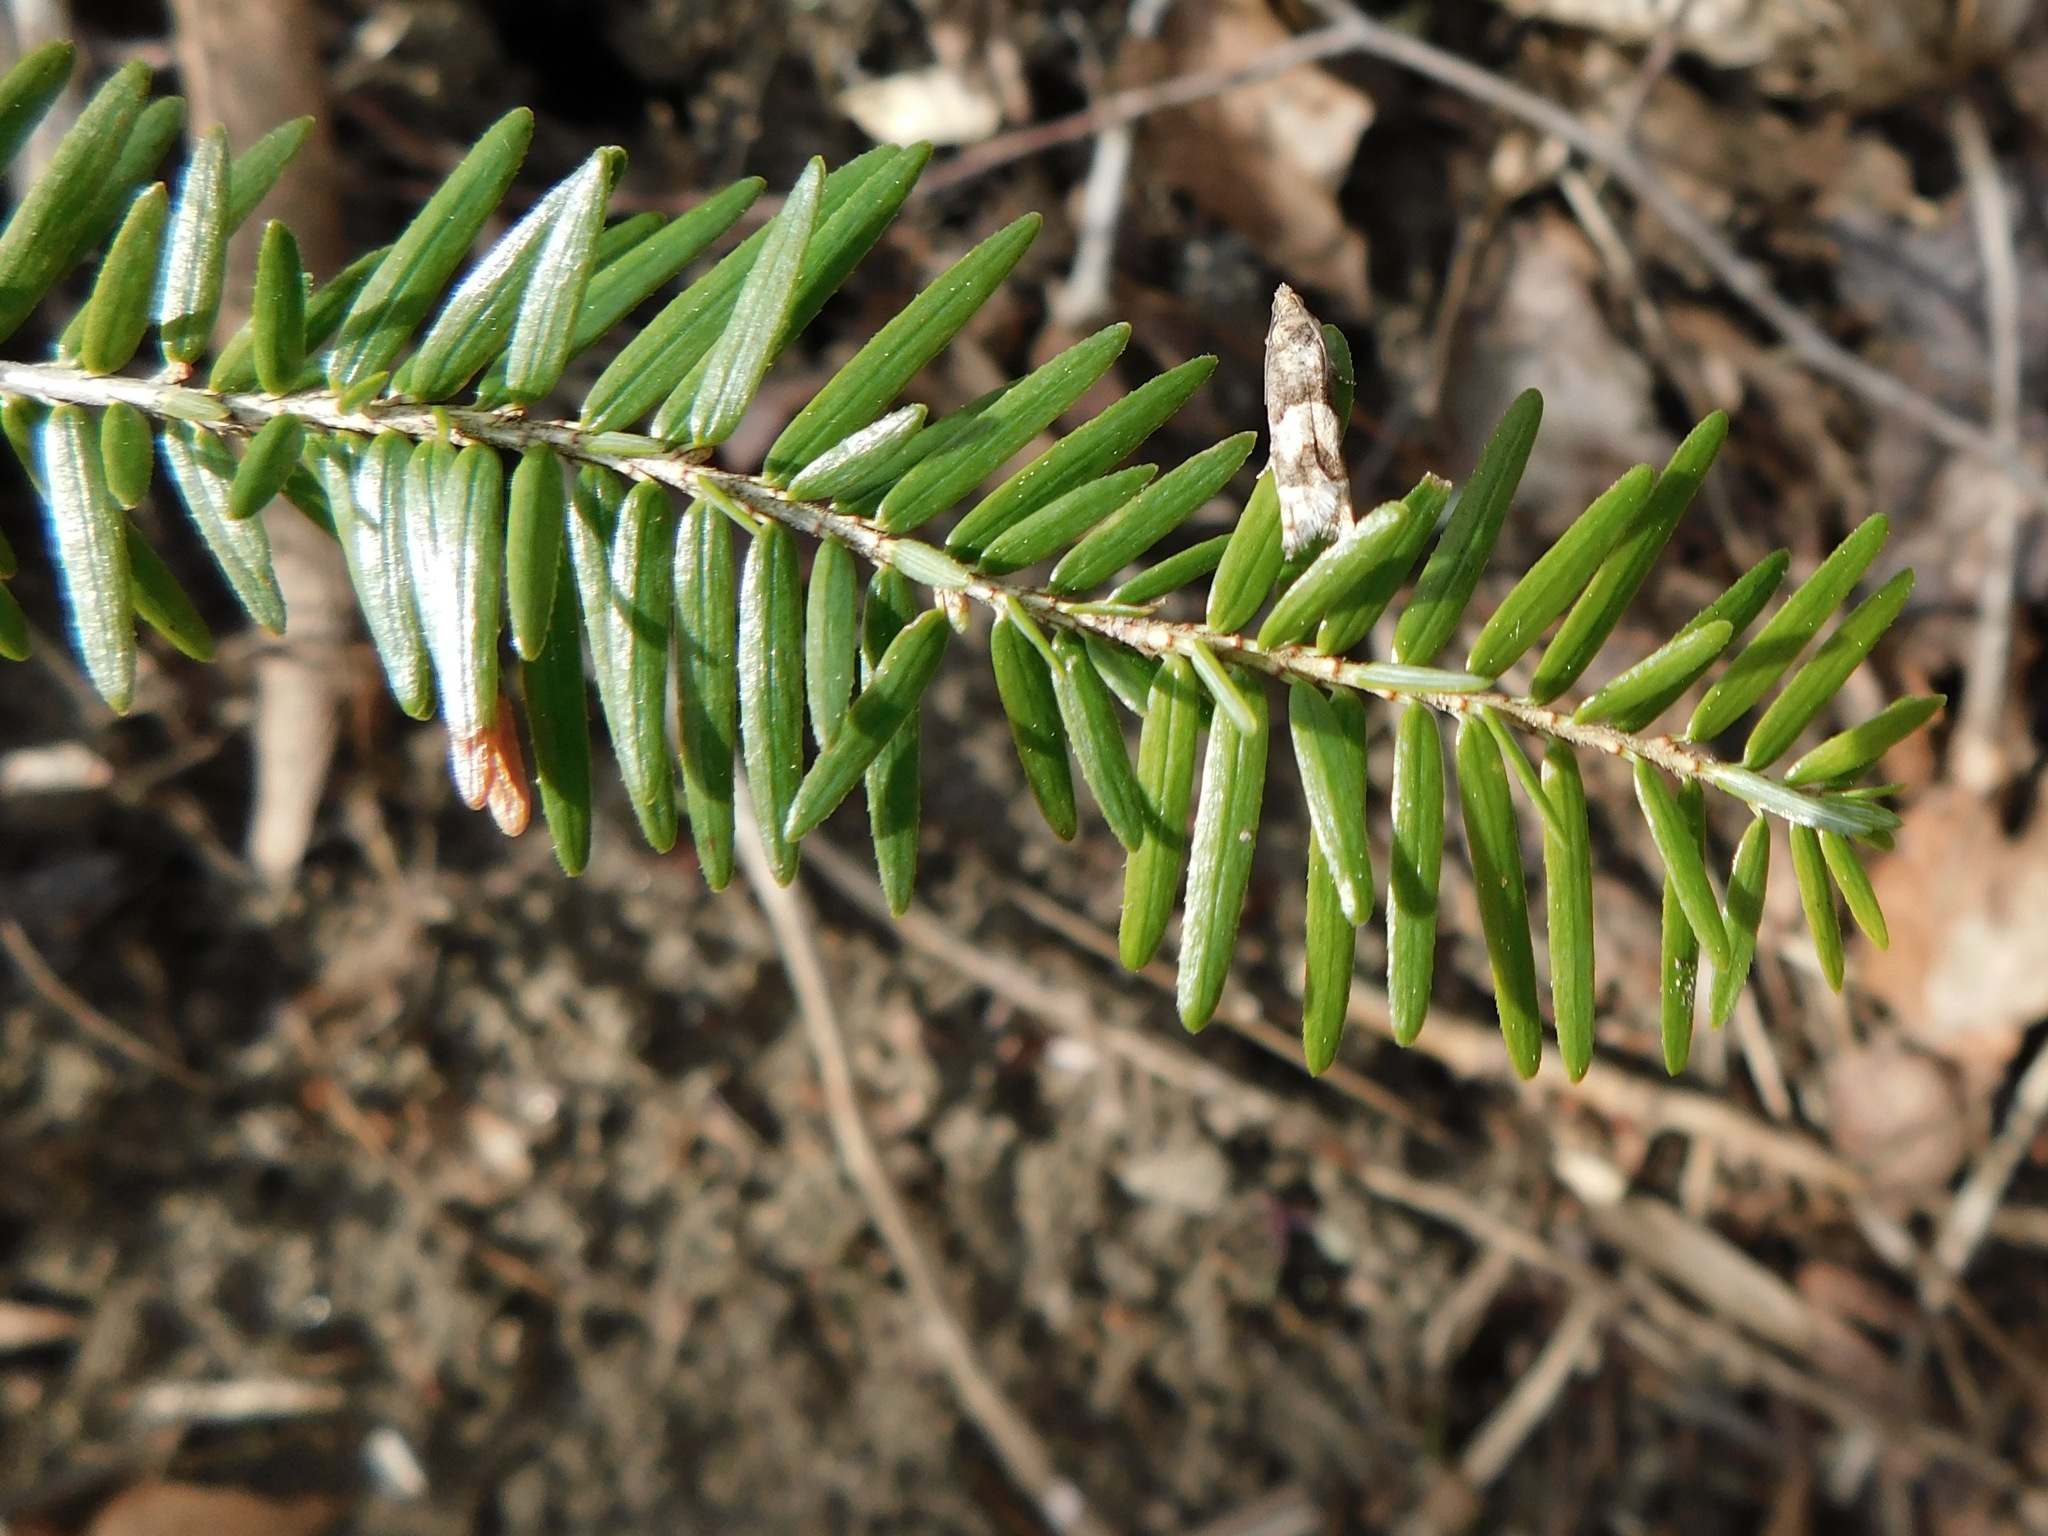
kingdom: Plantae
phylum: Tracheophyta
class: Pinopsida
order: Pinales
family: Pinaceae
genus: Tsuga
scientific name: Tsuga canadensis
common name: Eastern hemlock
